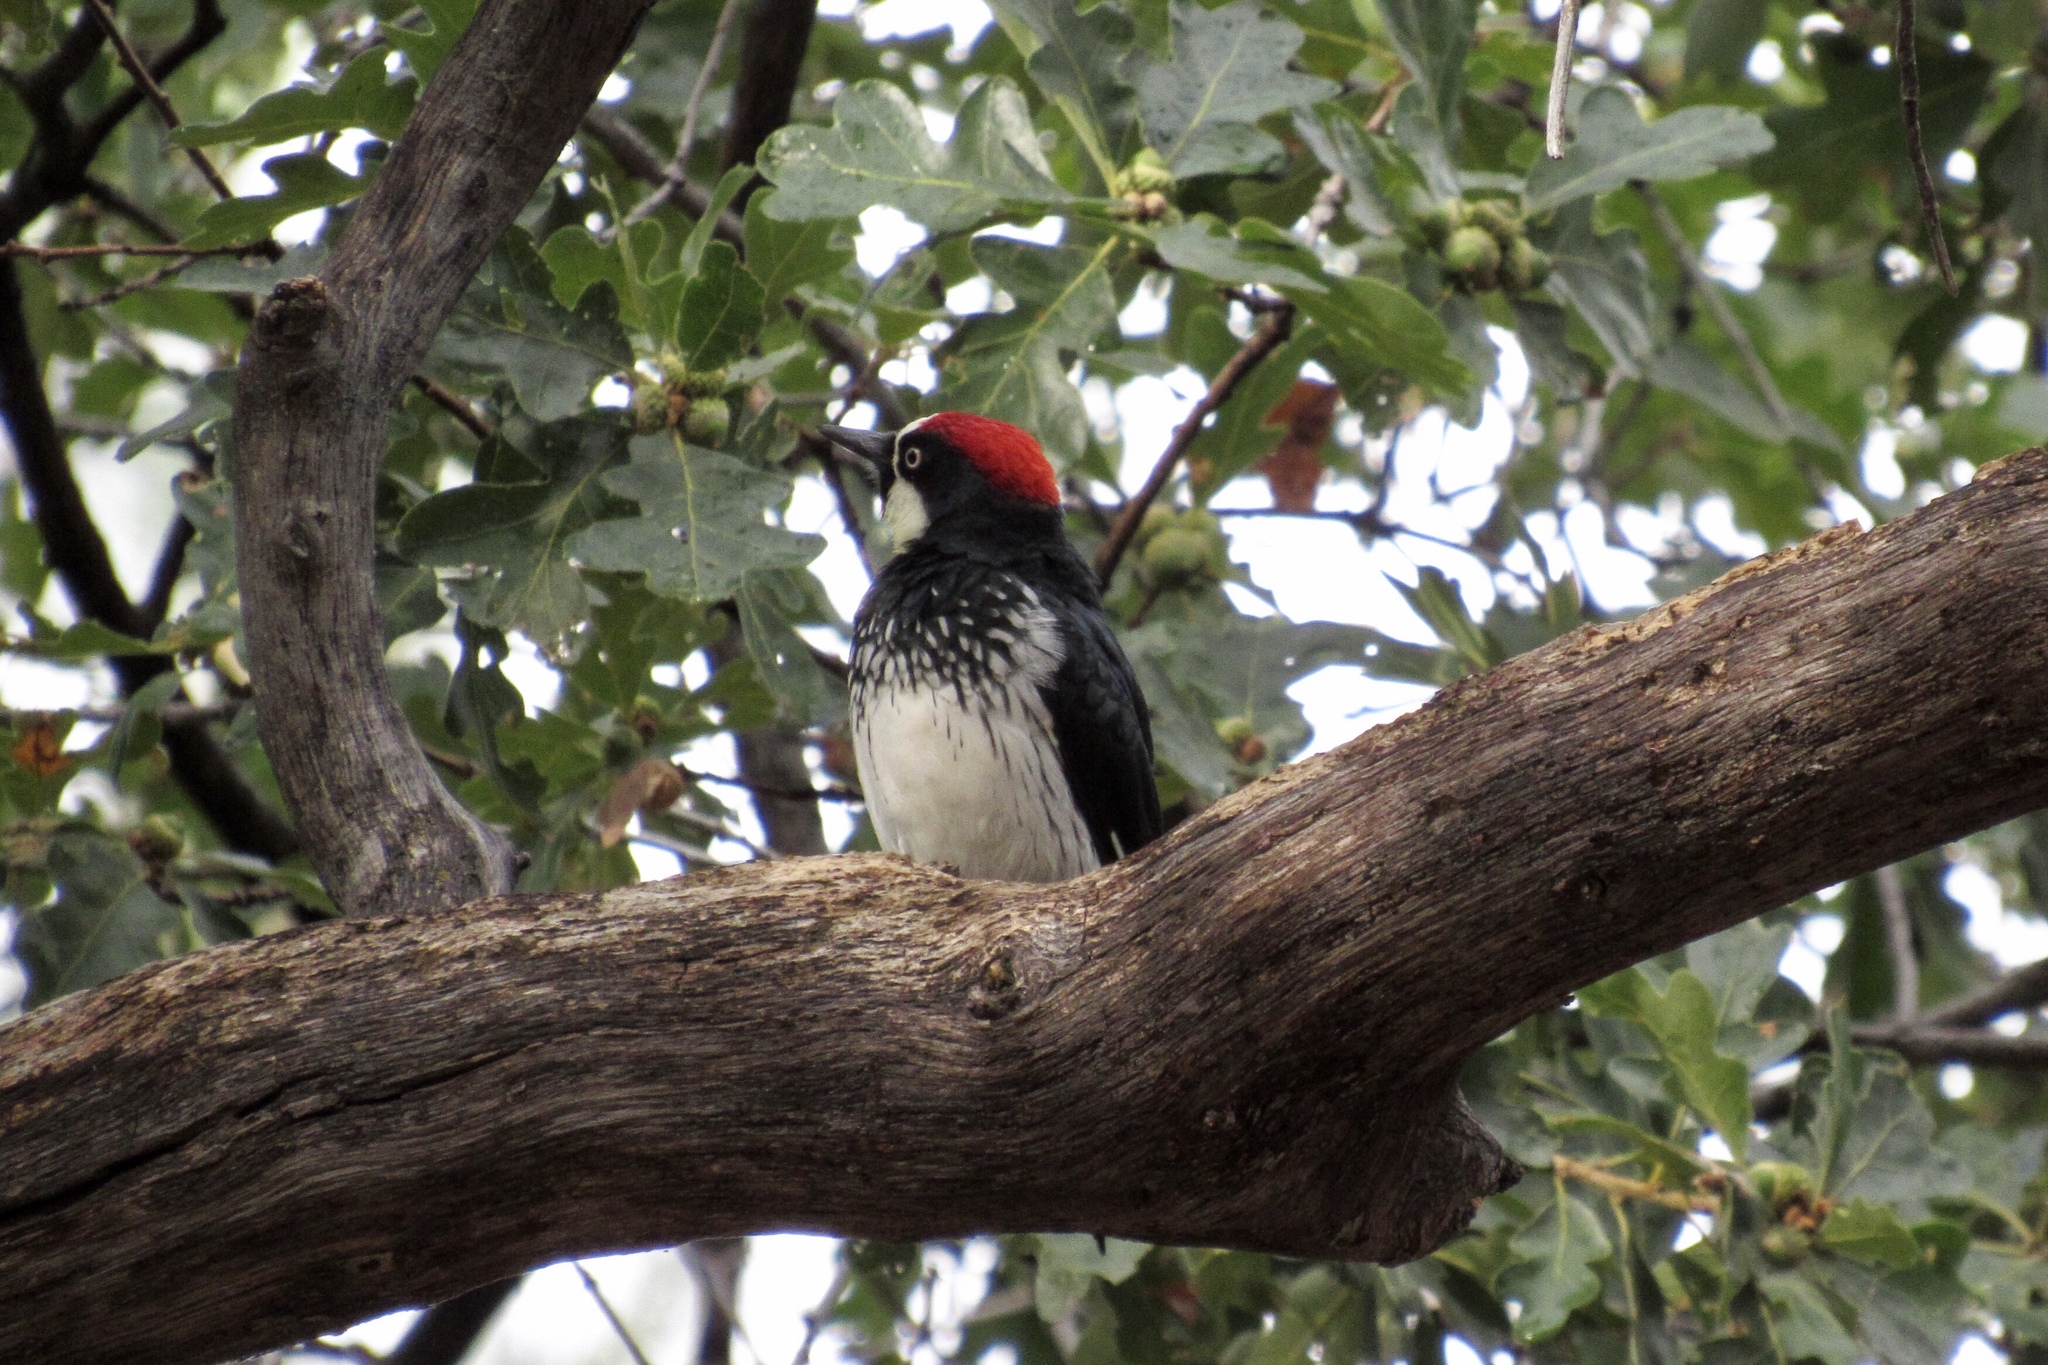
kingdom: Animalia
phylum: Chordata
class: Aves
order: Piciformes
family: Picidae
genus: Melanerpes
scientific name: Melanerpes formicivorus
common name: Acorn woodpecker
